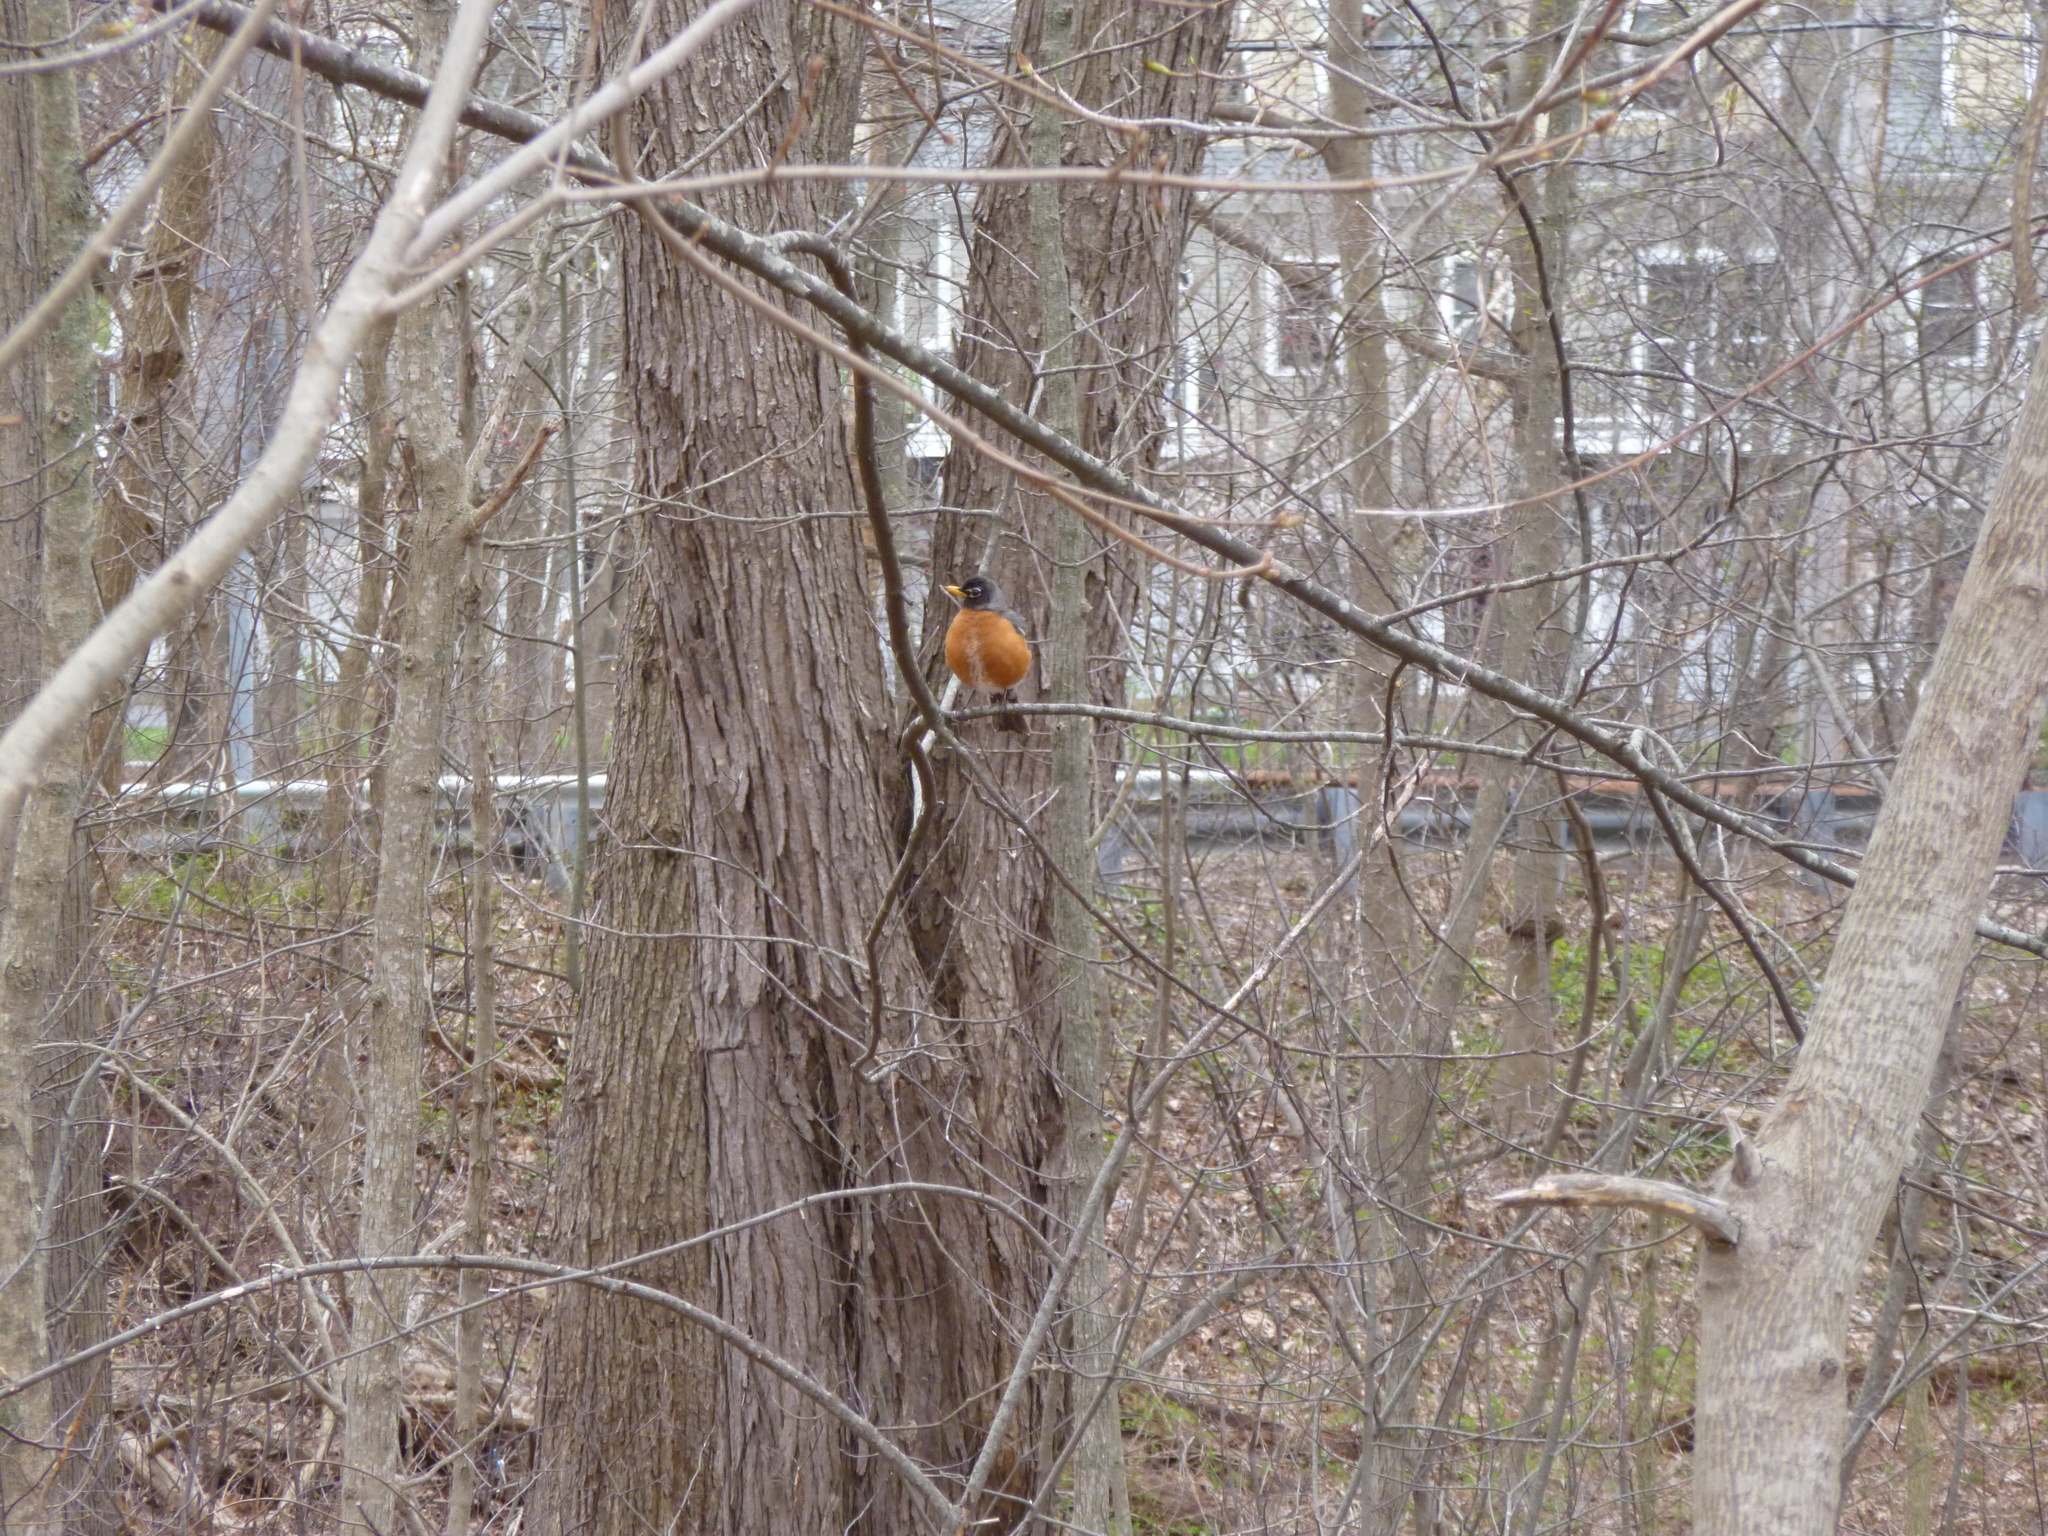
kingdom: Animalia
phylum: Chordata
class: Aves
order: Passeriformes
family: Turdidae
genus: Turdus
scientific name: Turdus migratorius
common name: American robin
